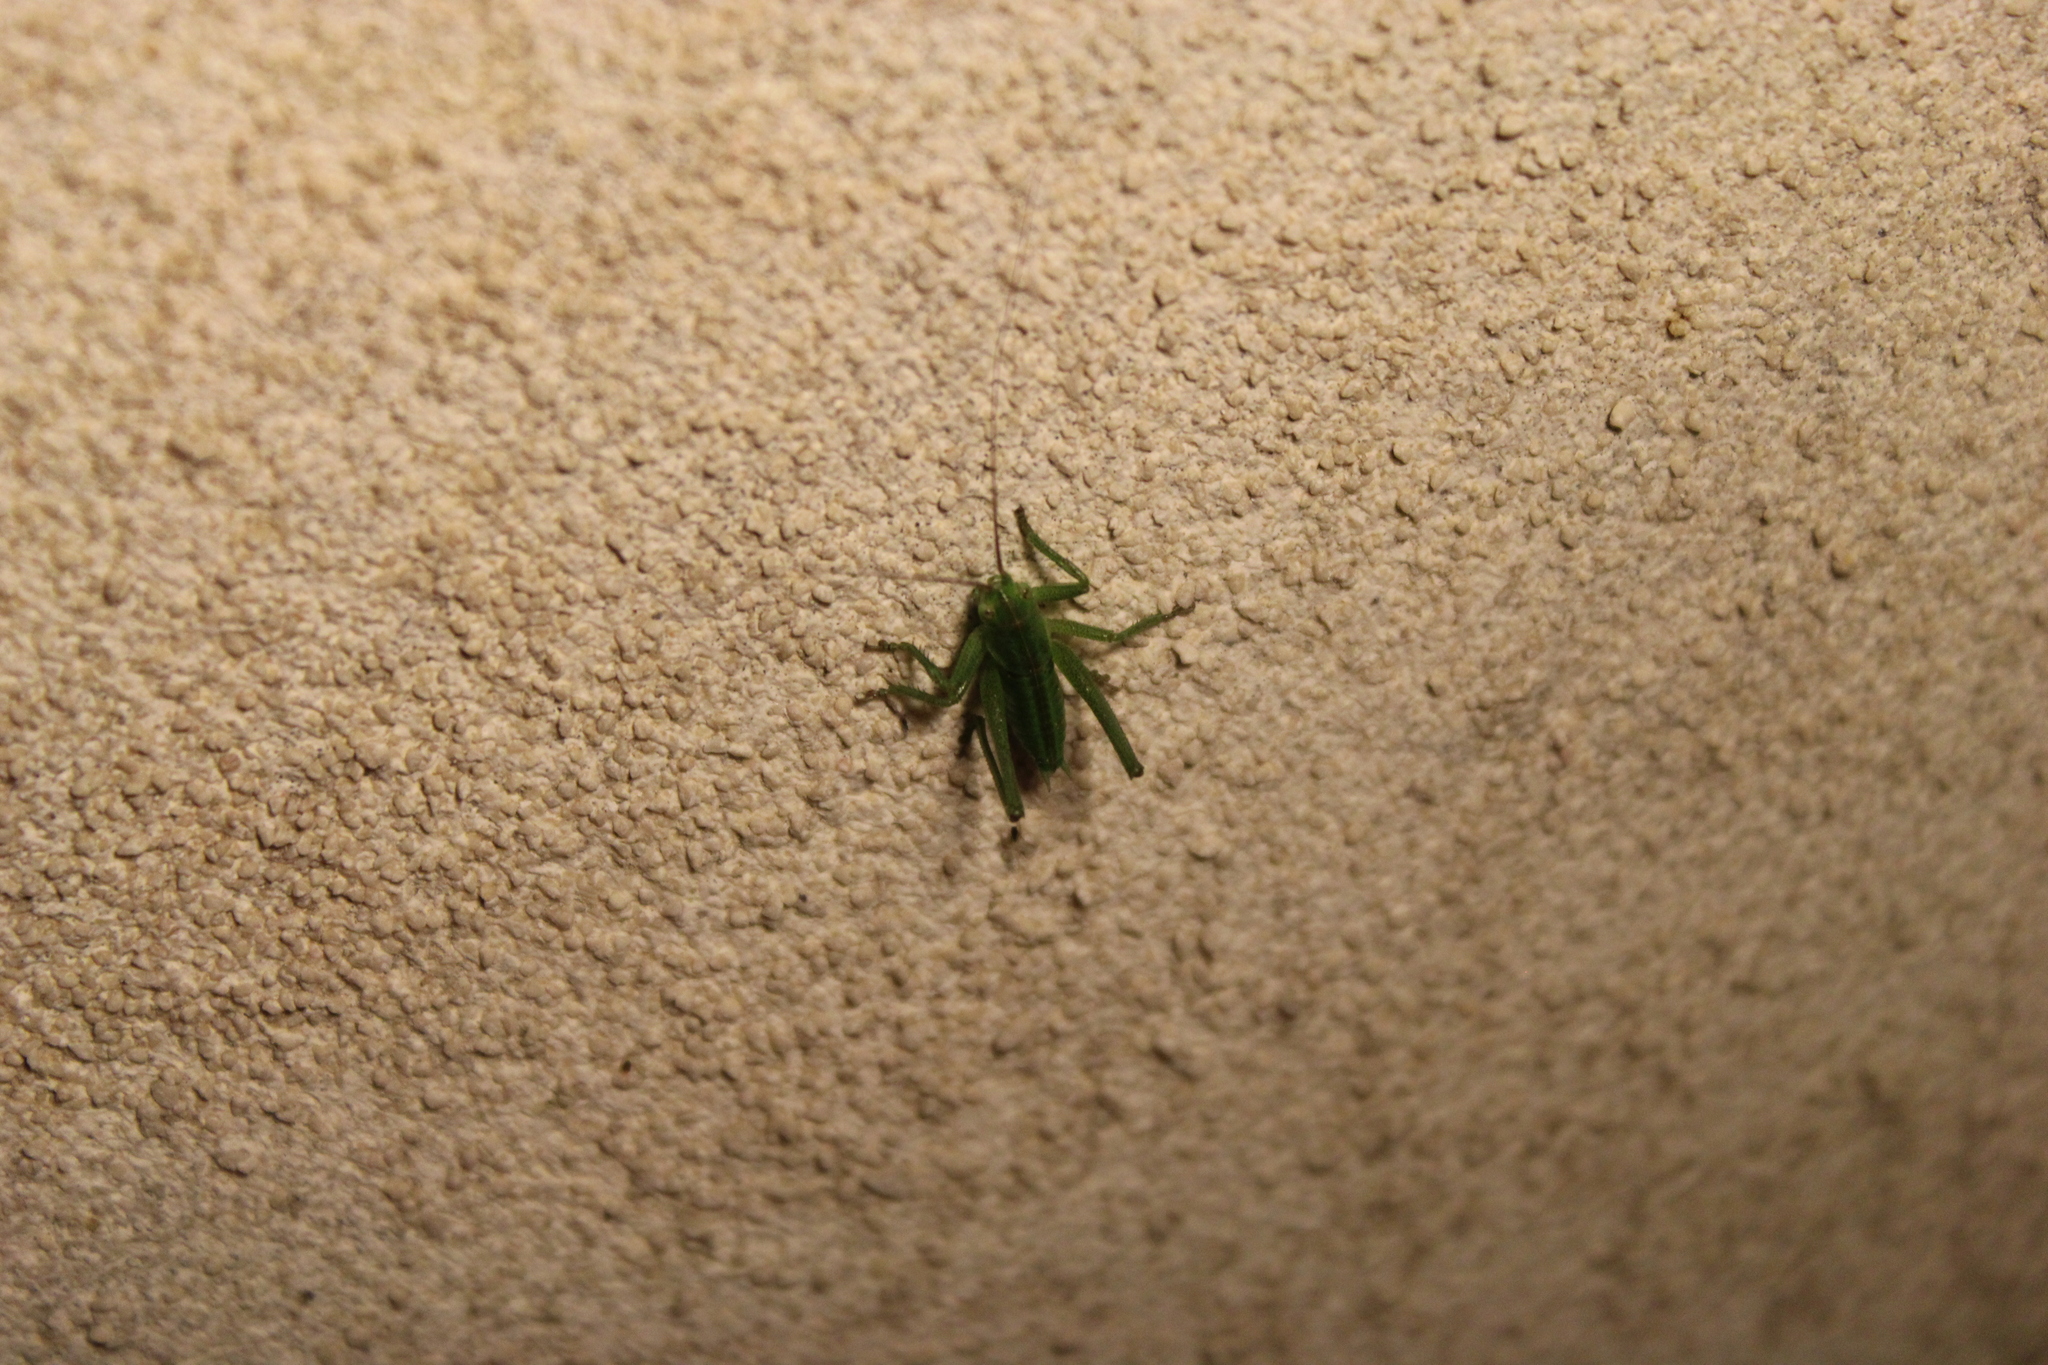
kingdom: Animalia
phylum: Arthropoda
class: Insecta
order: Orthoptera
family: Tettigoniidae
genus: Tettigonia
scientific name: Tettigonia viridissima
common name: Great green bush-cricket
